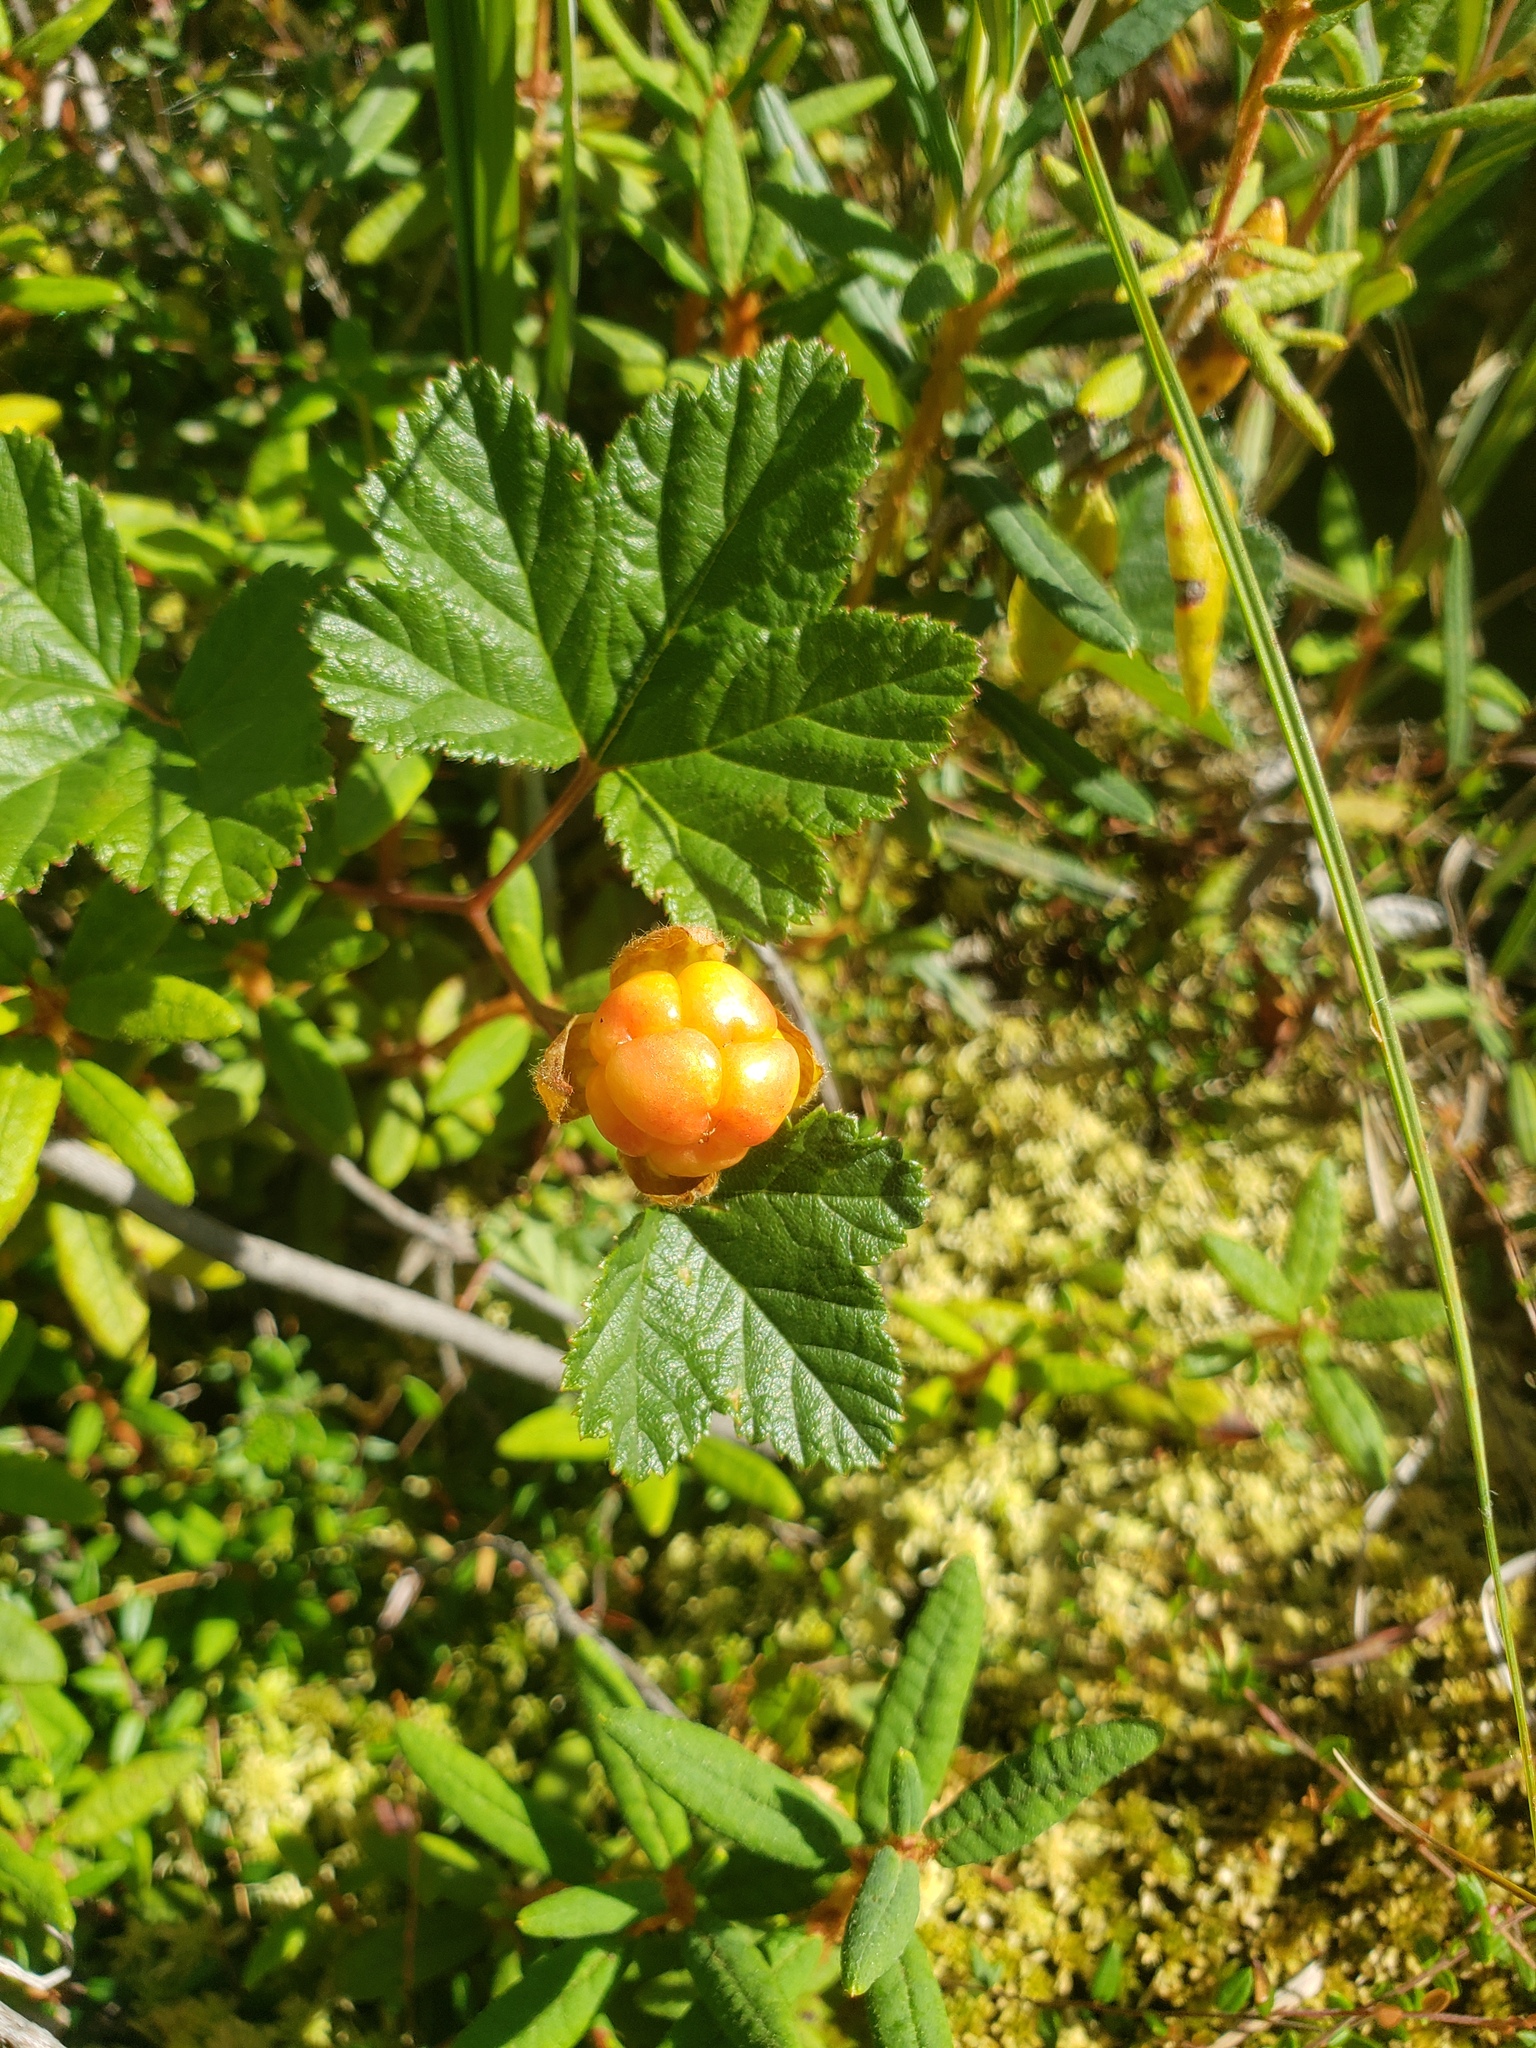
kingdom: Plantae
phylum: Tracheophyta
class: Magnoliopsida
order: Rosales
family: Rosaceae
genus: Rubus
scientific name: Rubus chamaemorus
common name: Cloudberry
